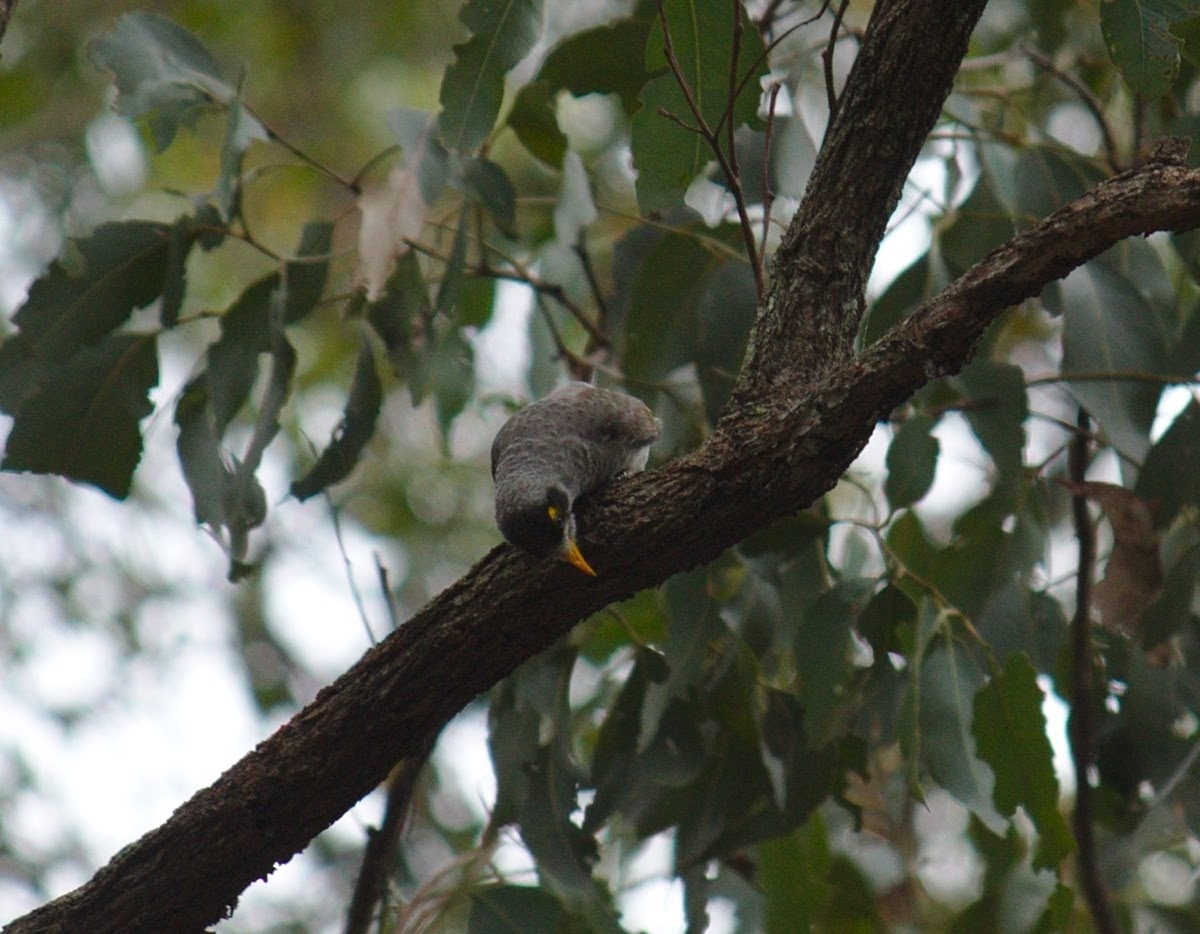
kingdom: Animalia
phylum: Chordata
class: Aves
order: Passeriformes
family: Meliphagidae
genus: Manorina
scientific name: Manorina melanocephala
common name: Noisy miner
